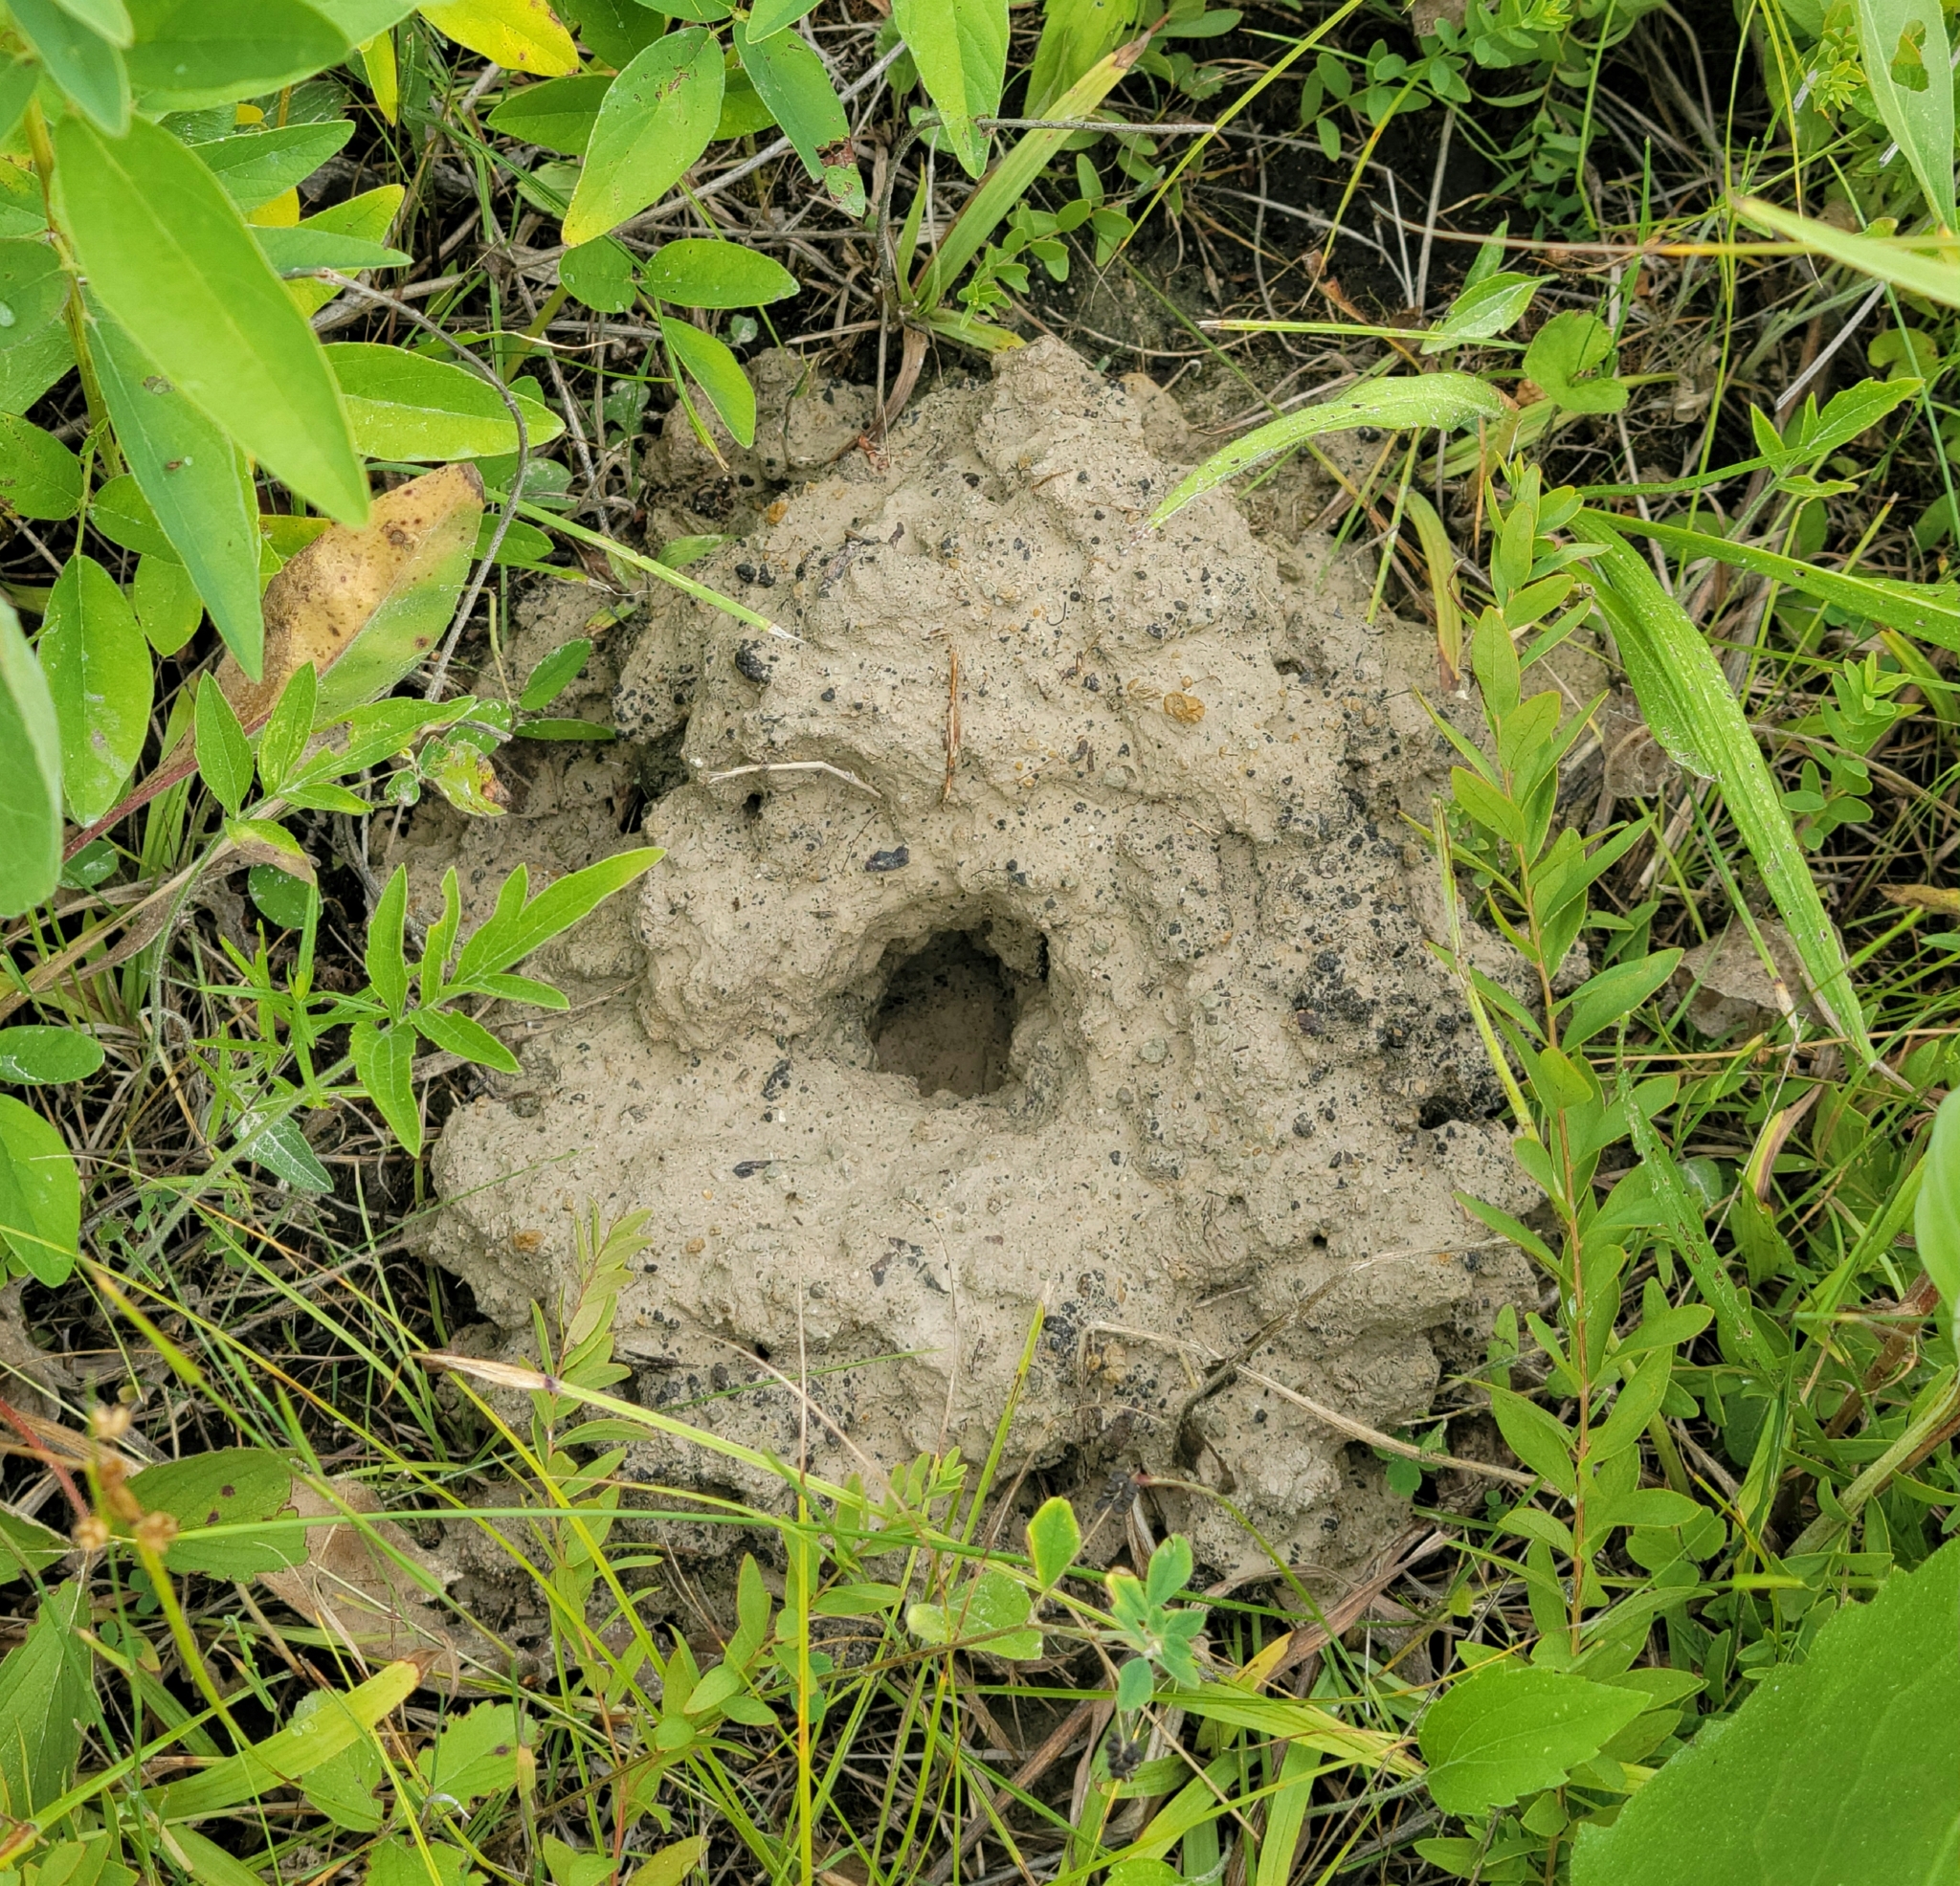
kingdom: Animalia
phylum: Arthropoda
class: Malacostraca
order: Decapoda
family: Cambaridae
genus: Procambarus
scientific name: Procambarus gracilis
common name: Prairie crayfish
